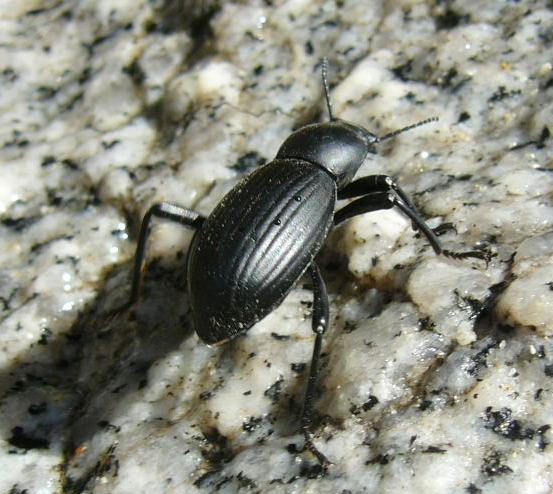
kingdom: Animalia
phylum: Arthropoda
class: Insecta
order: Coleoptera
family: Tenebrionidae
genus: Coelocnemis
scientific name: Coelocnemis sulcata
